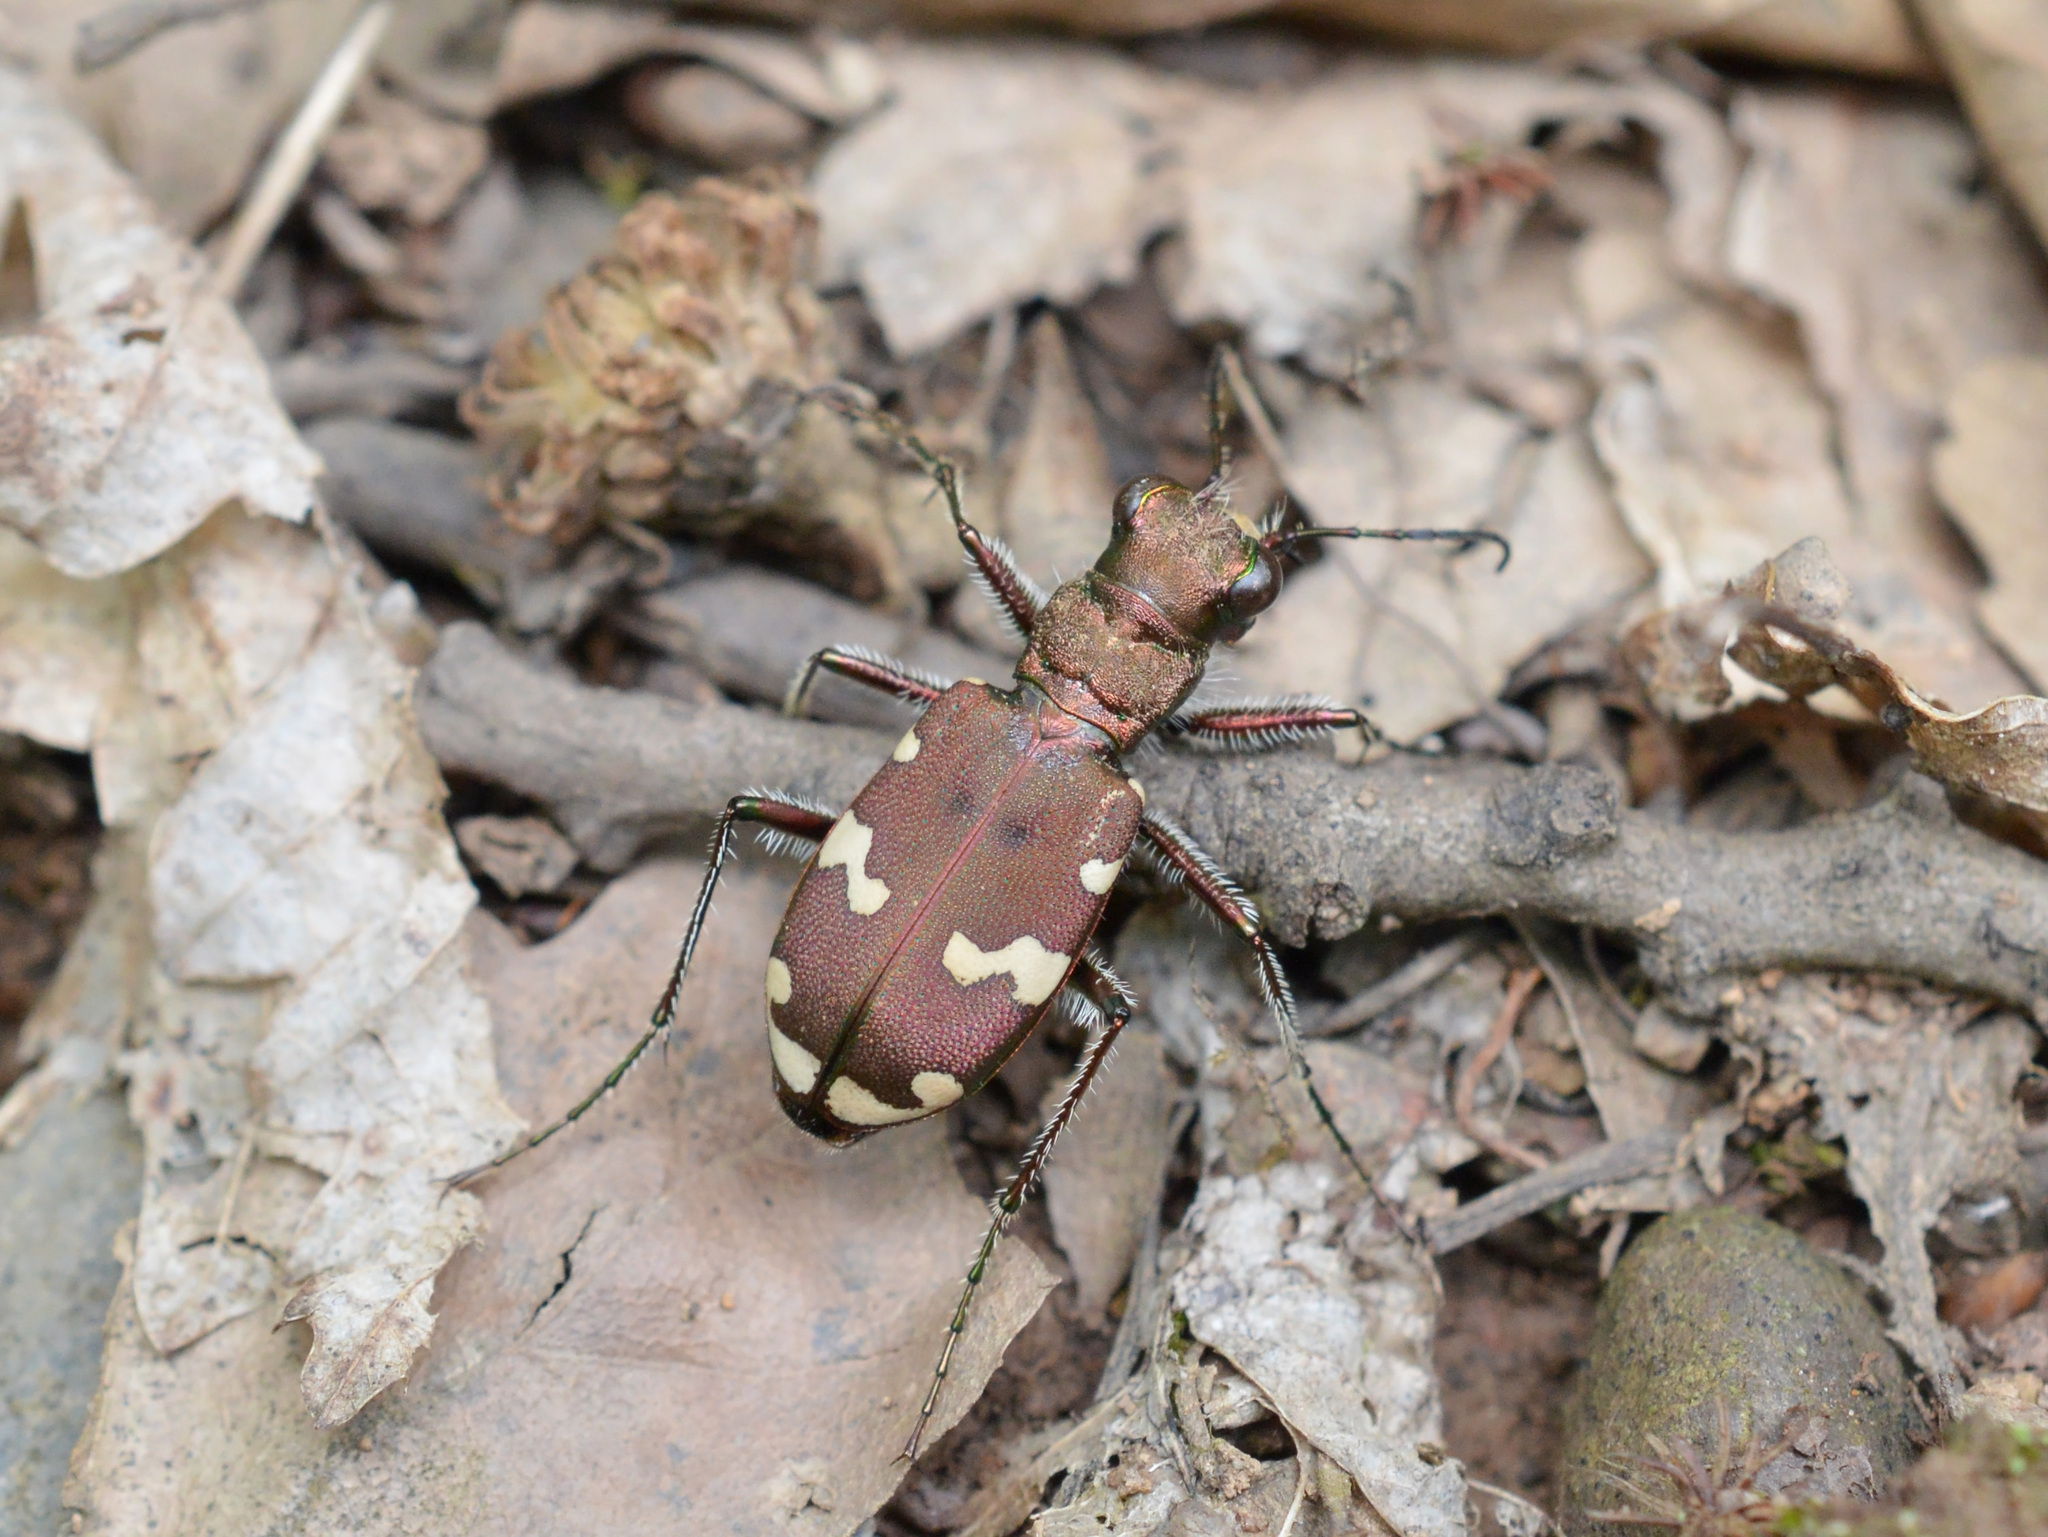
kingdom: Animalia
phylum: Arthropoda
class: Insecta
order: Coleoptera
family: Carabidae
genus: Cicindela
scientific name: Cicindela sylvicola
